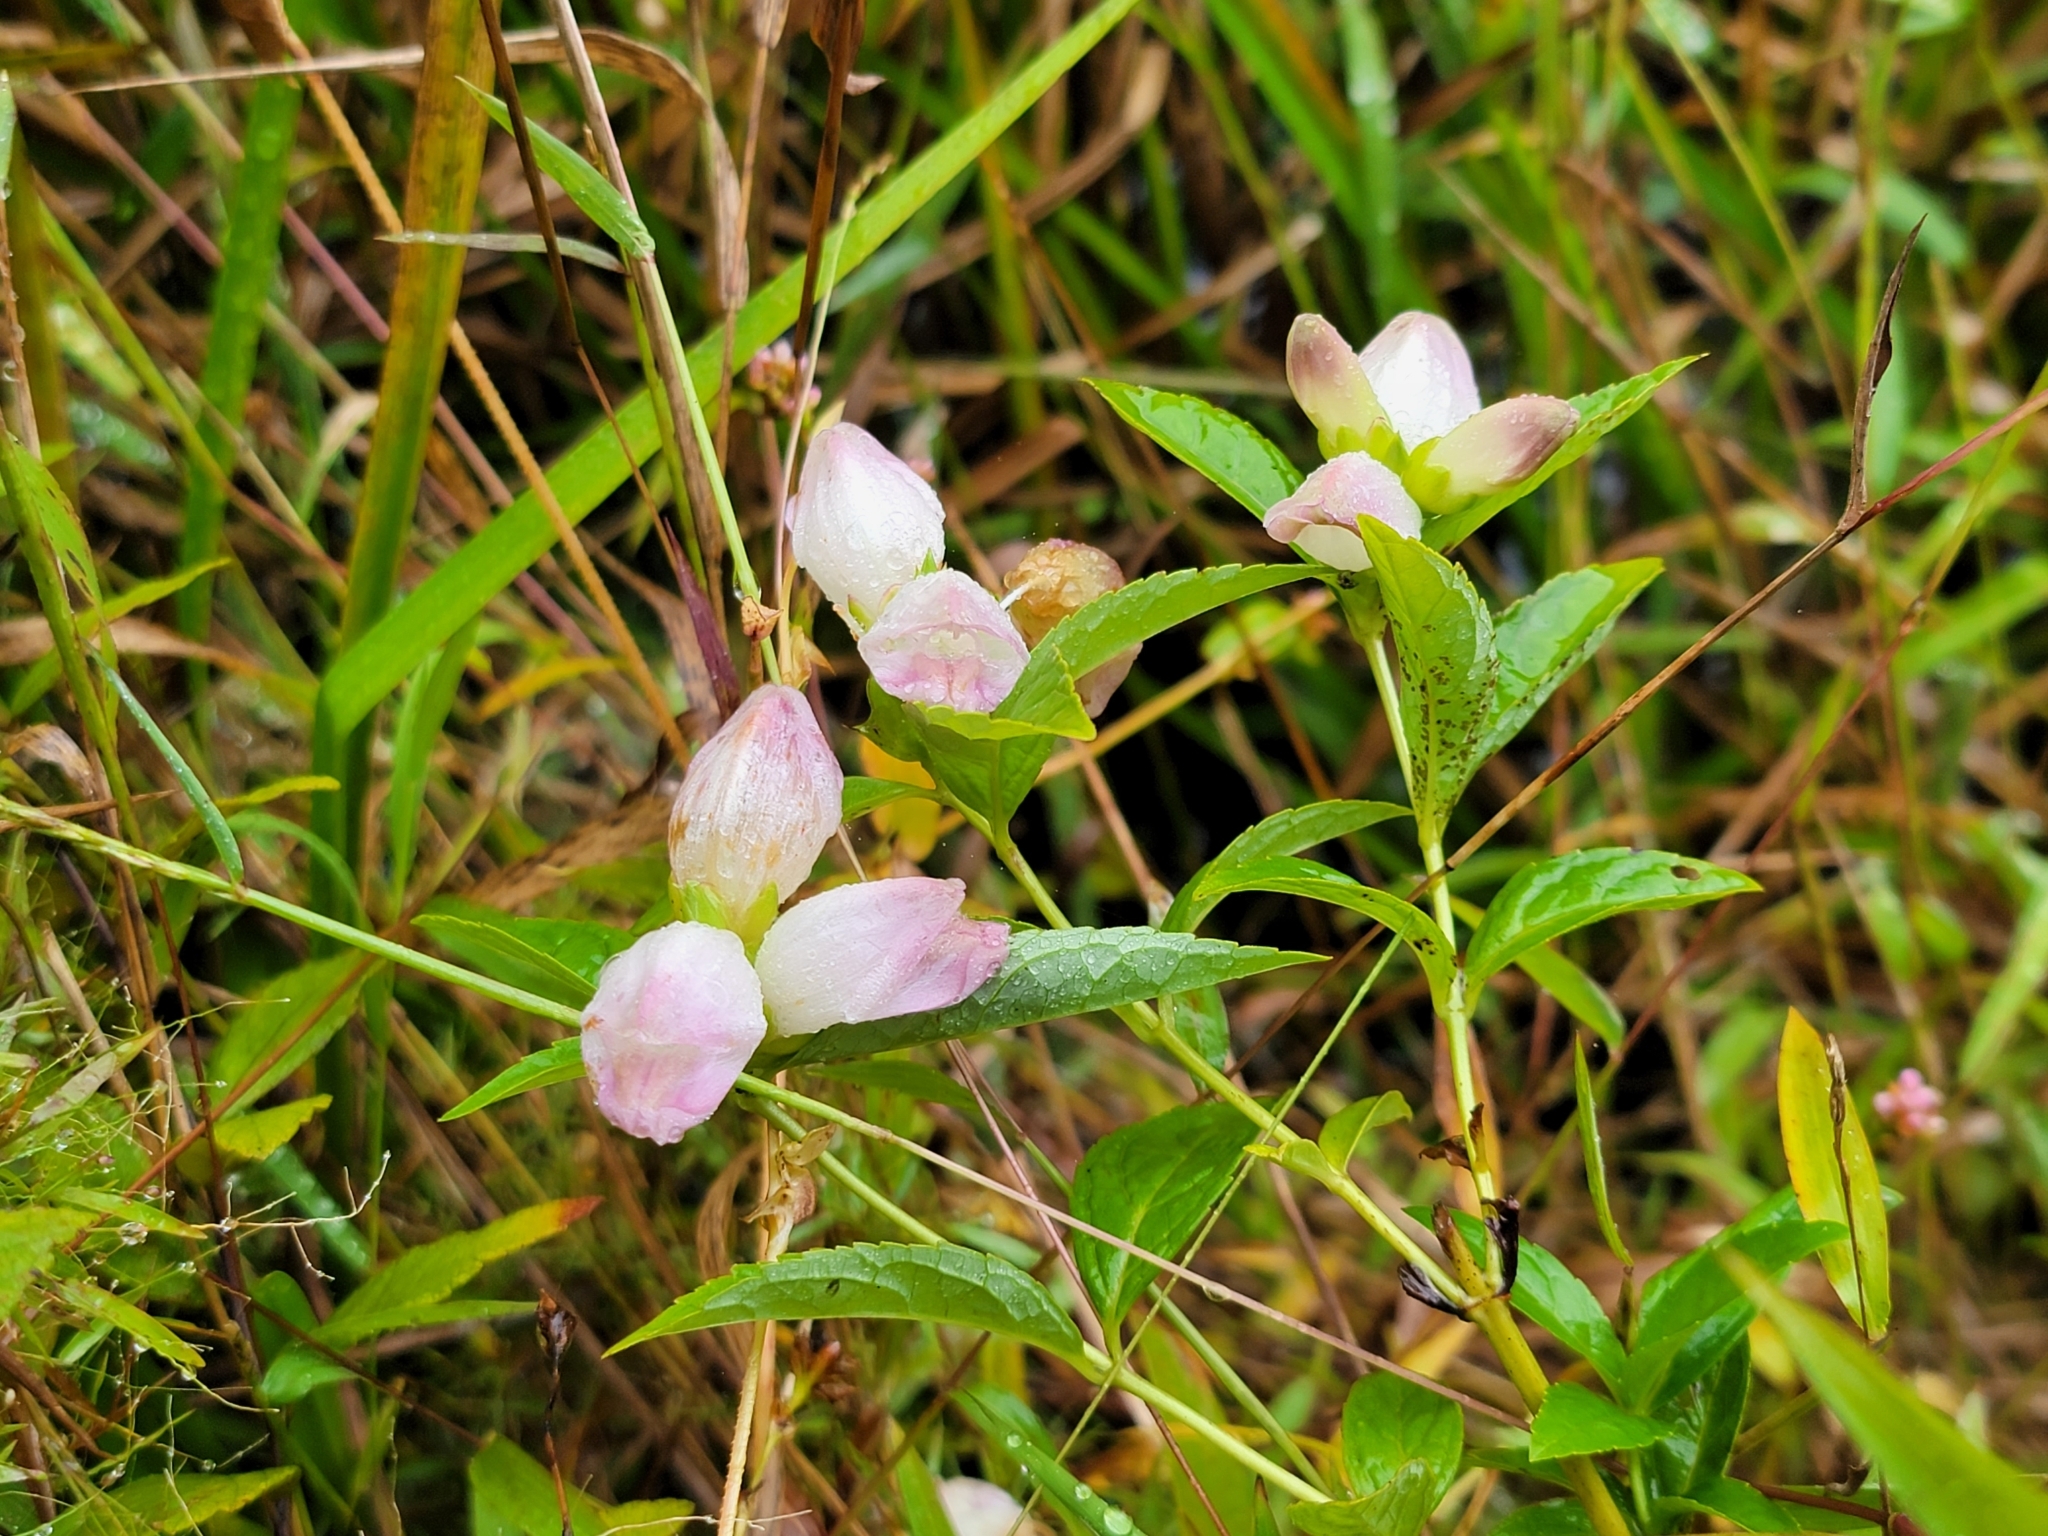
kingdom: Plantae
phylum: Tracheophyta
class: Magnoliopsida
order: Lamiales
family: Plantaginaceae
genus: Chelone
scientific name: Chelone glabra
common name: Snakehead
